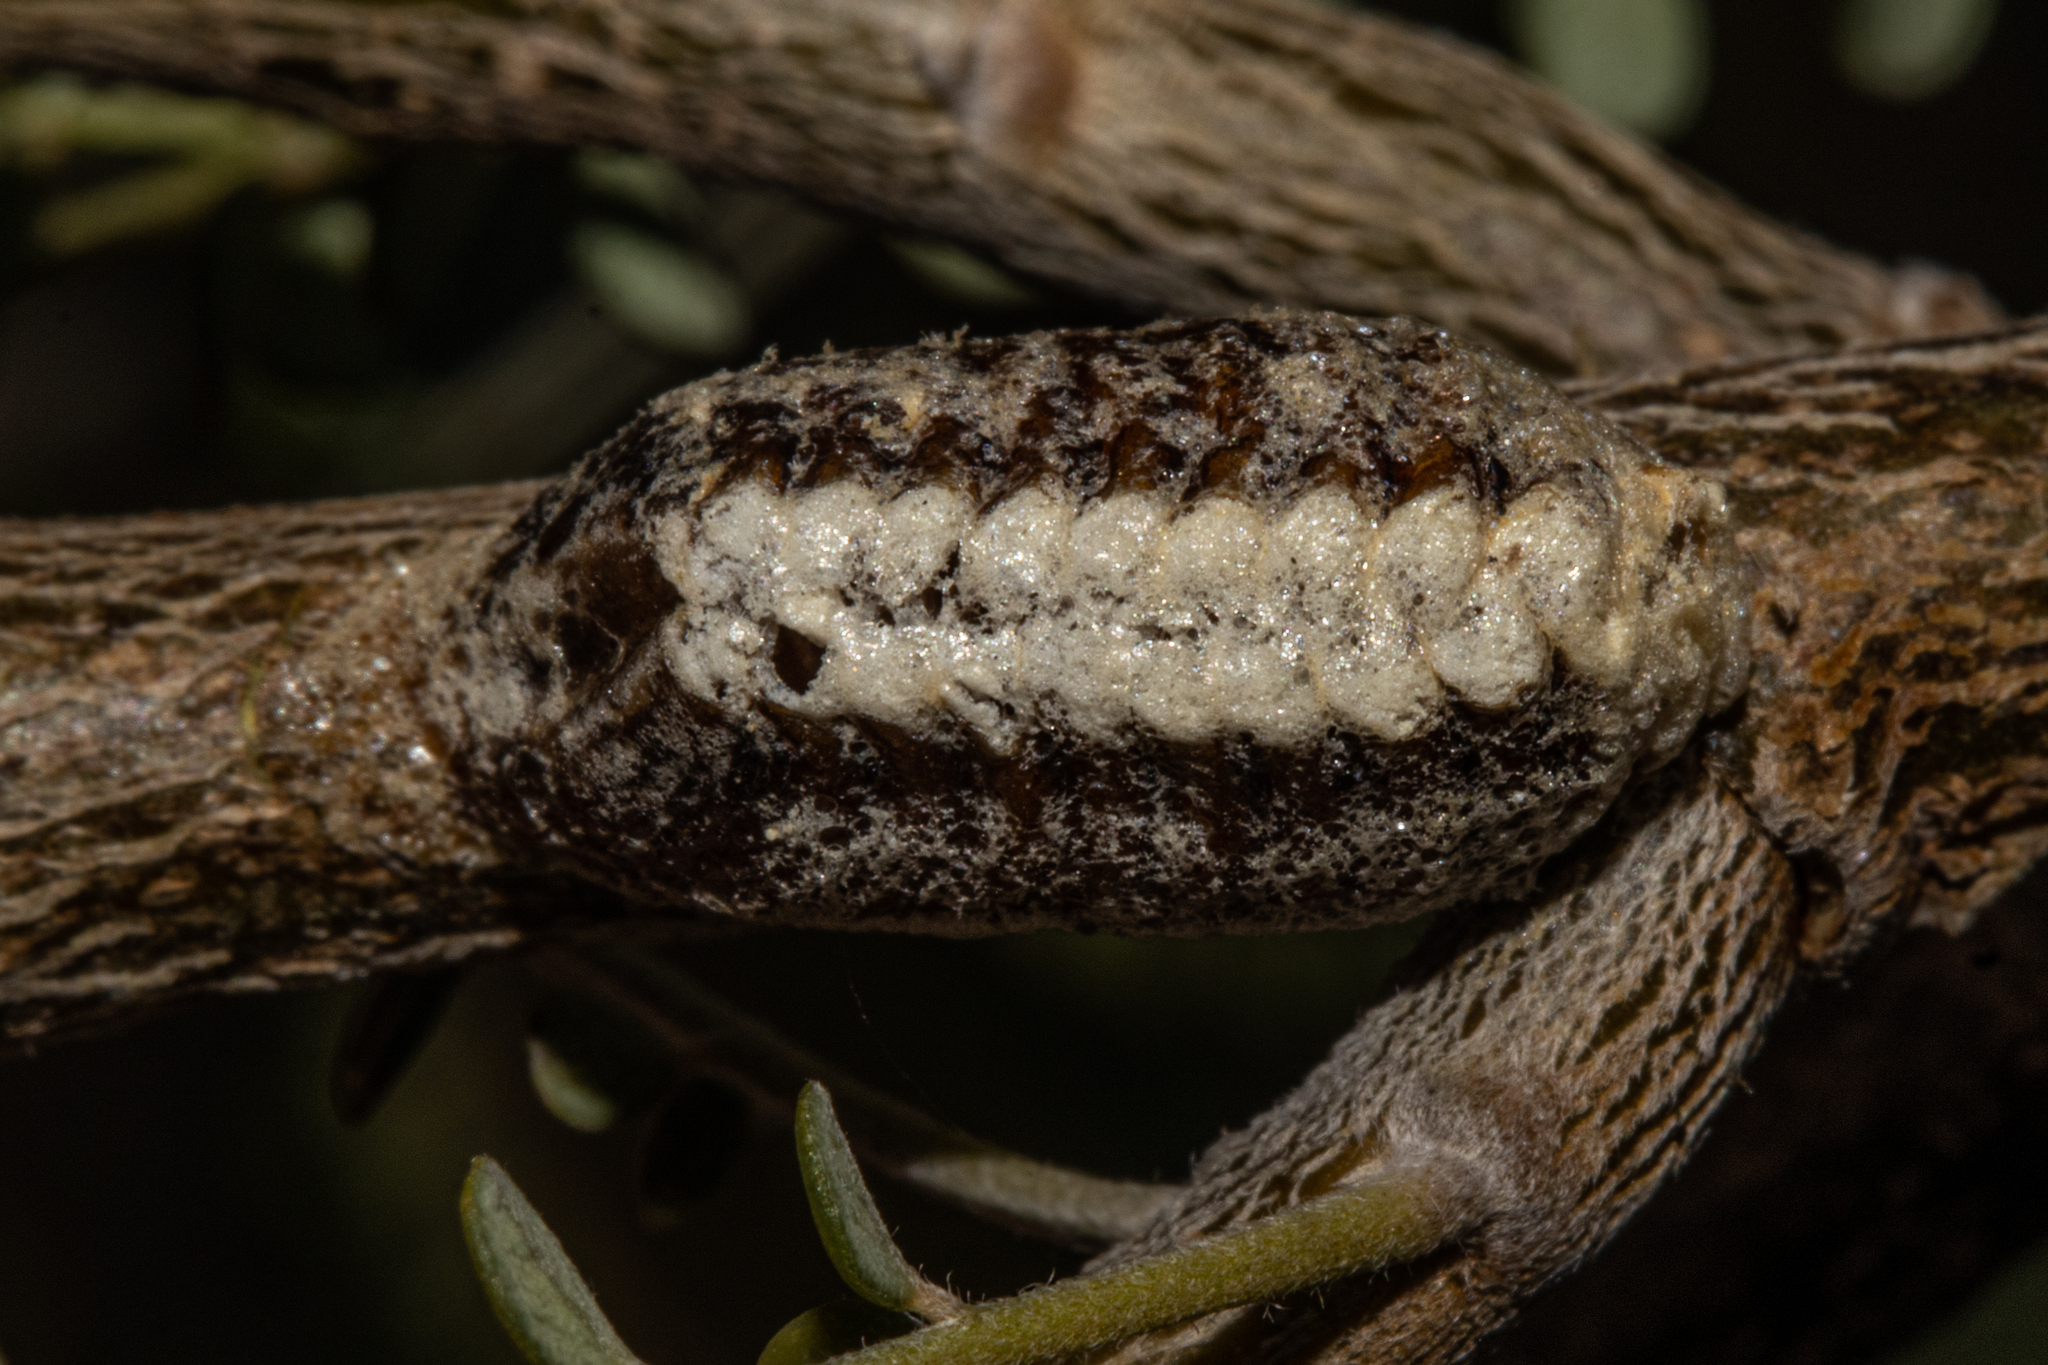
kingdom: Animalia
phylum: Arthropoda
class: Insecta
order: Mantodea
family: Mantidae
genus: Orthodera
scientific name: Orthodera novaezealandiae
